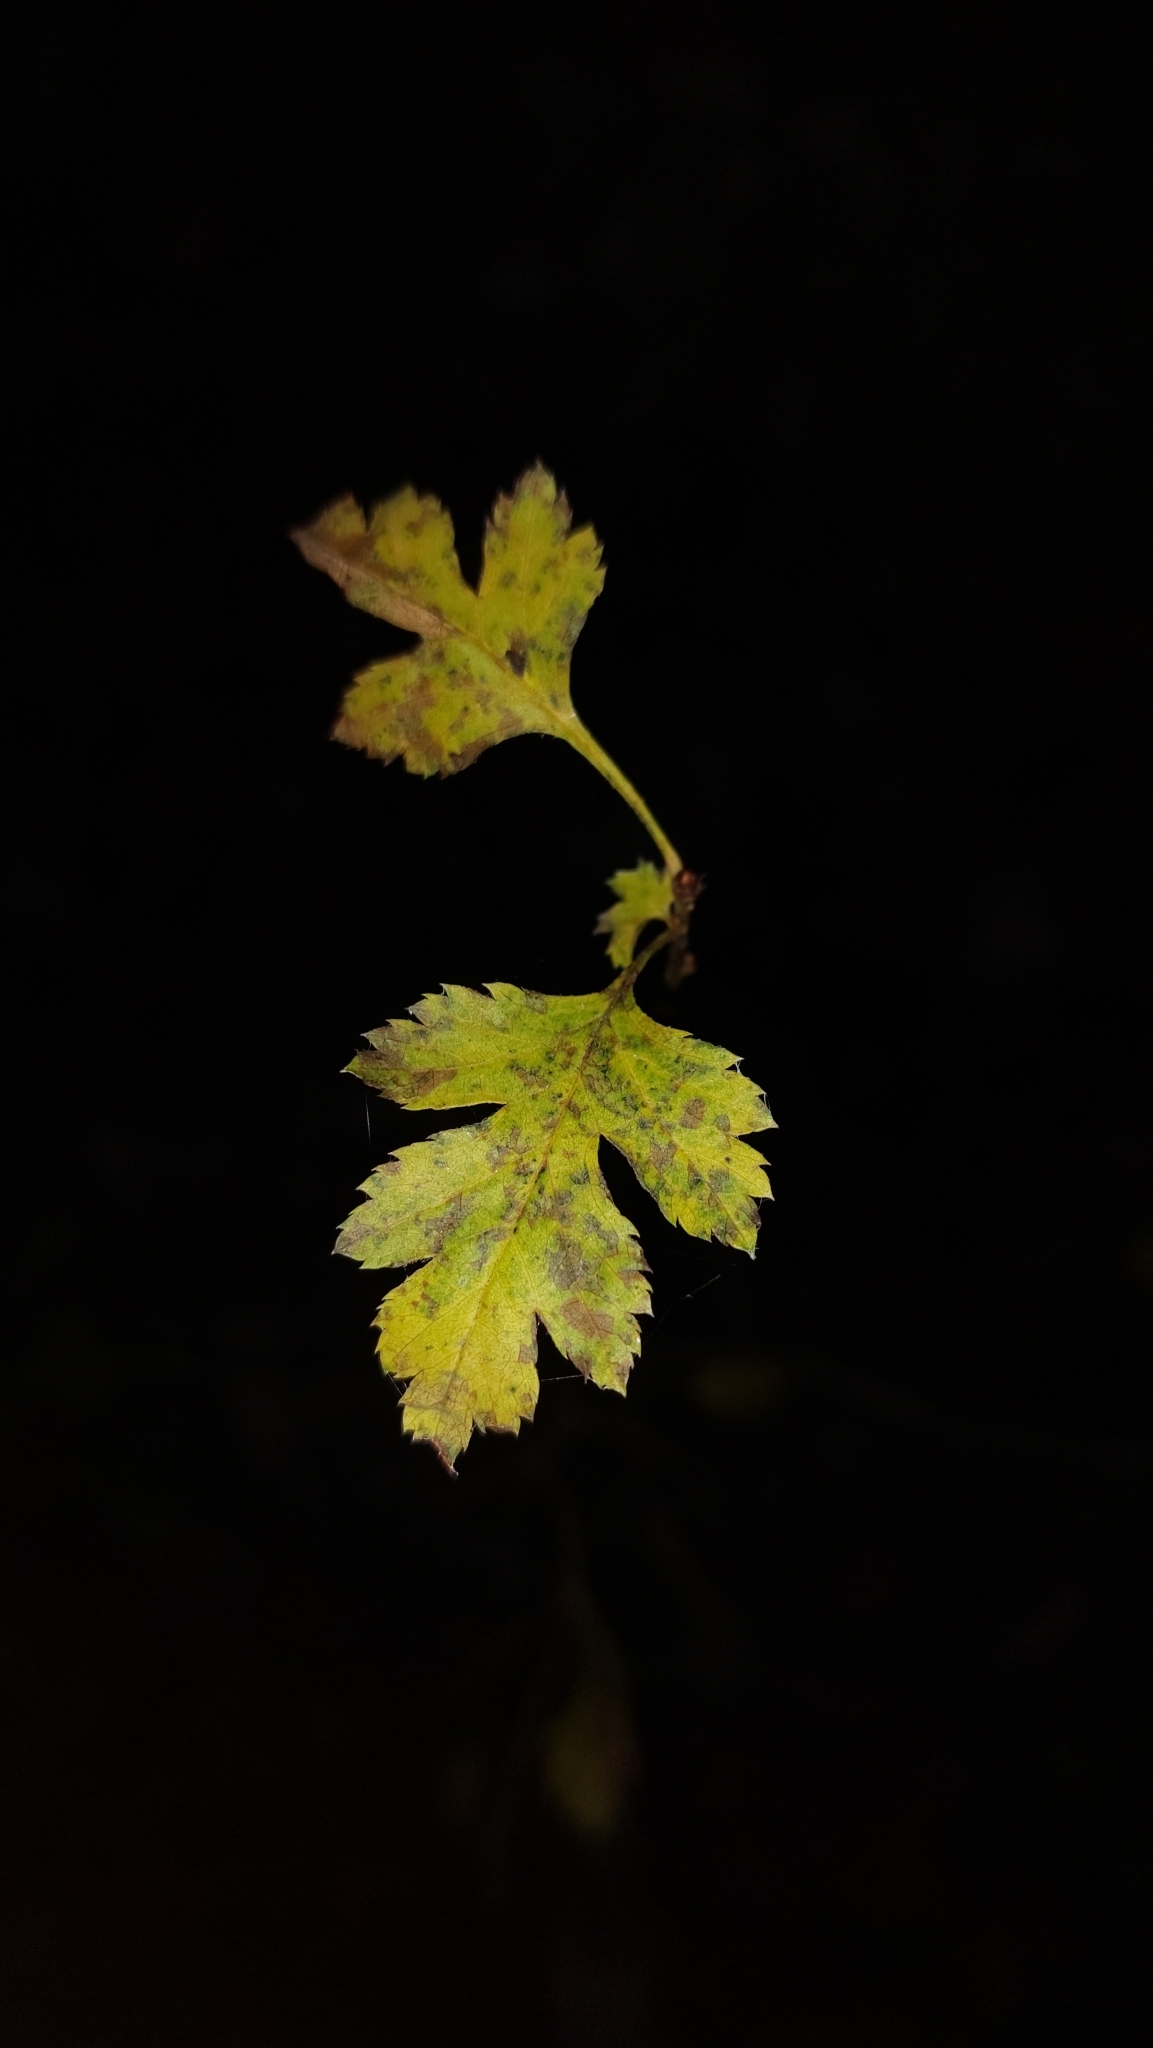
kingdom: Plantae
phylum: Tracheophyta
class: Magnoliopsida
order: Rosales
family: Rosaceae
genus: Crataegus
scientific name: Crataegus monogyna
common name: Hawthorn
